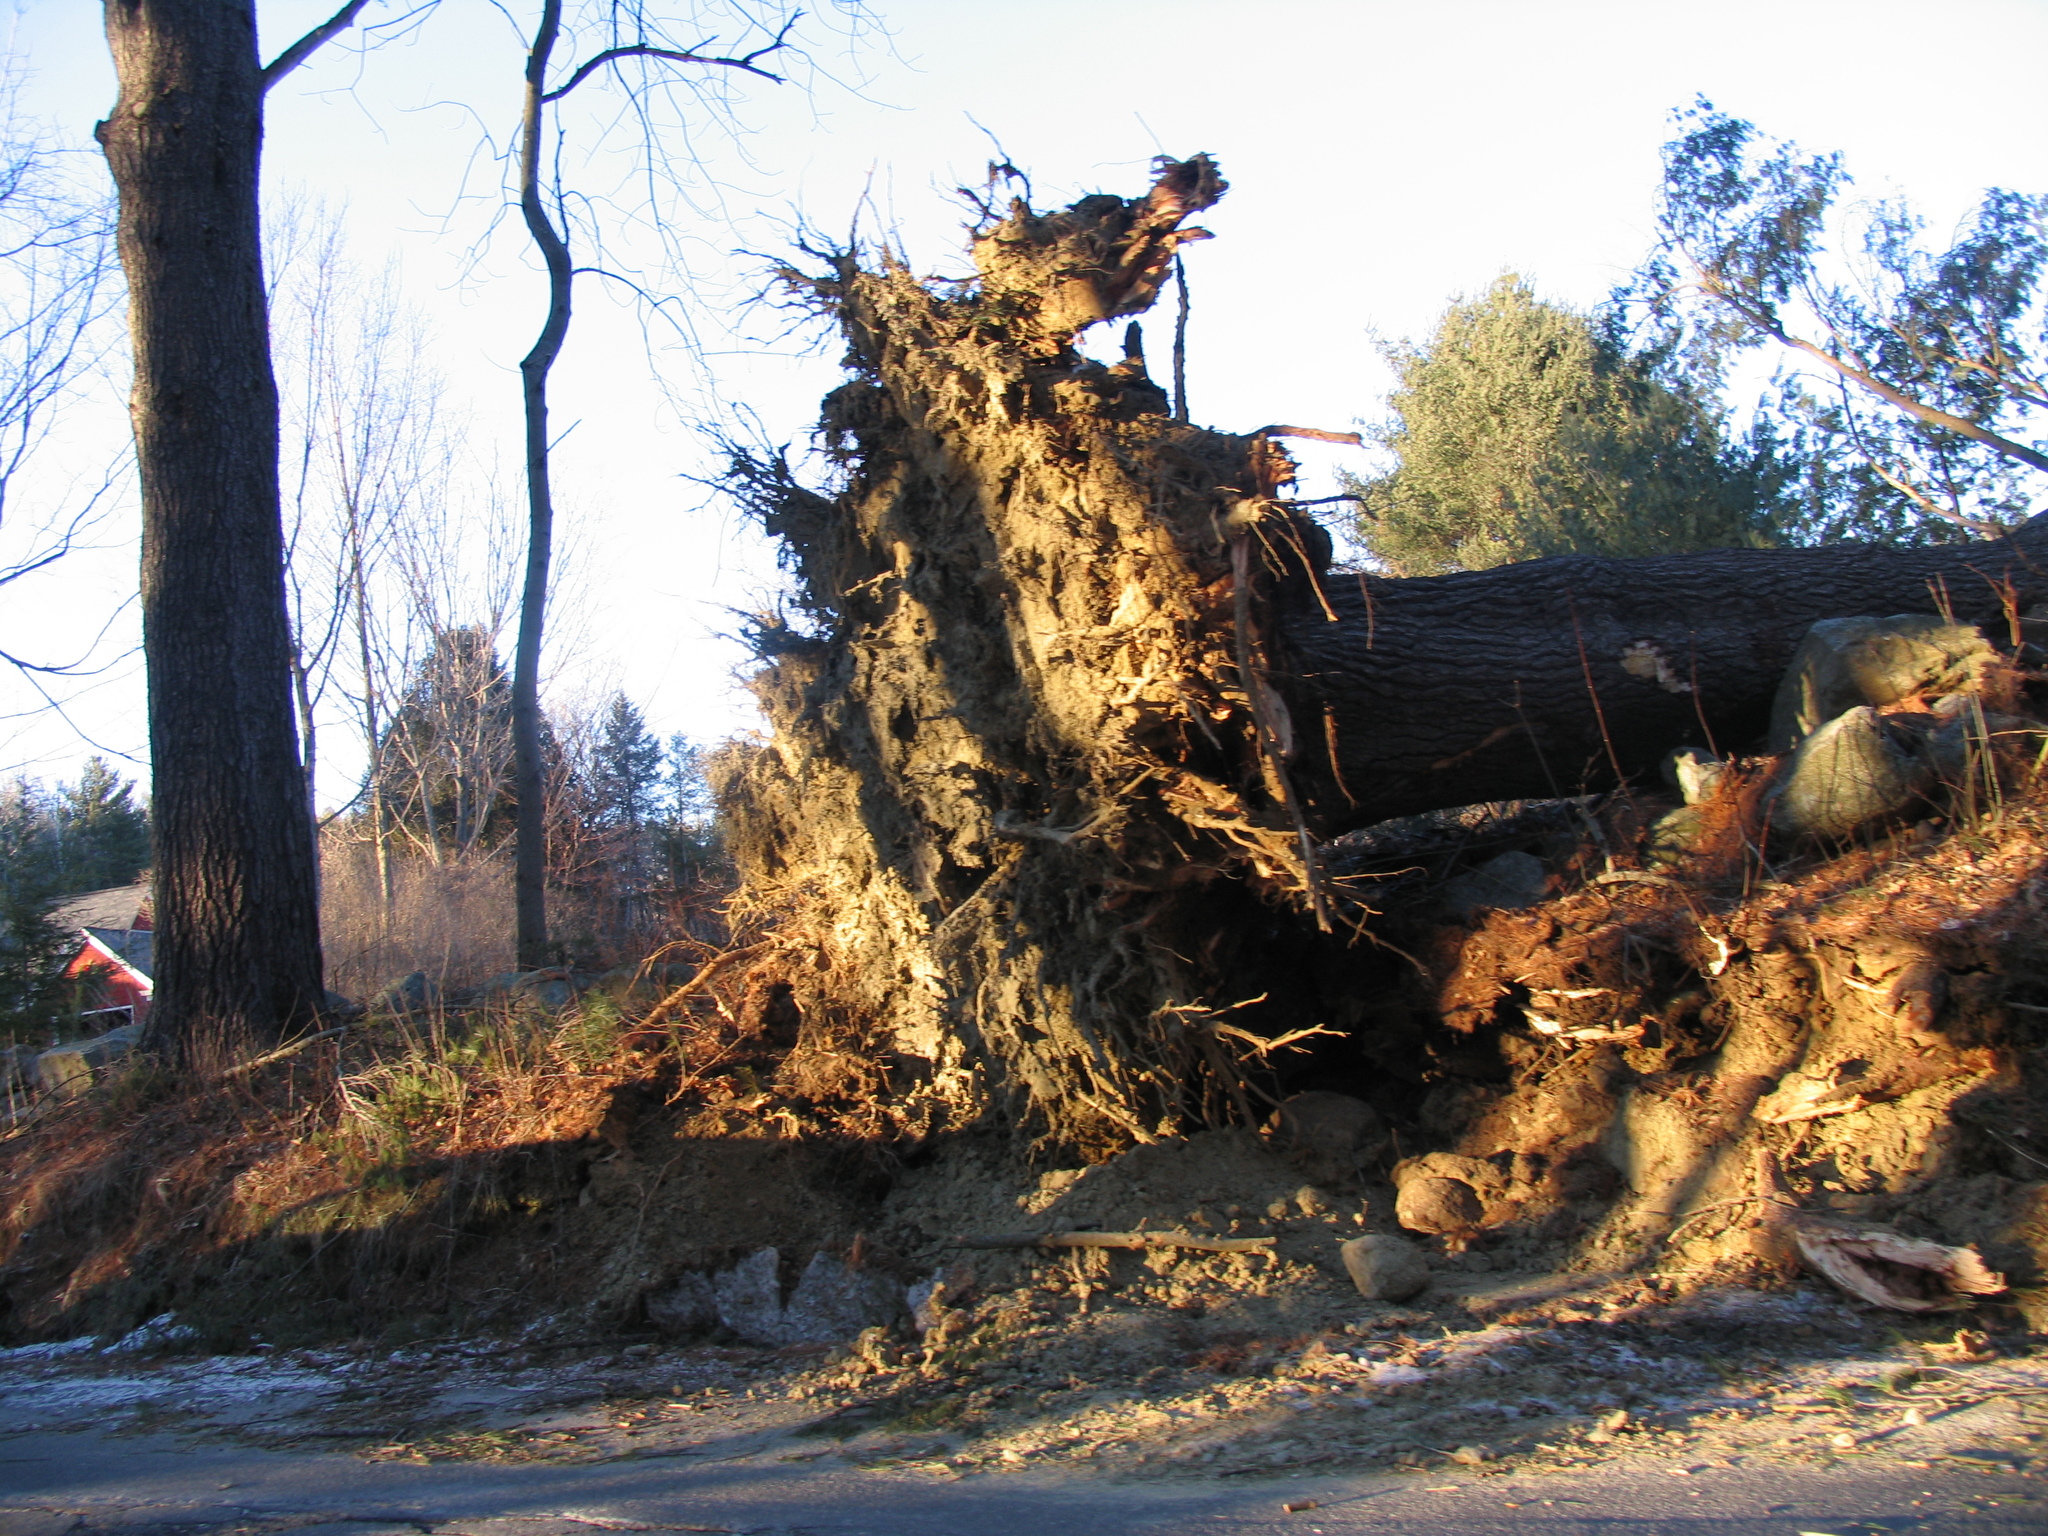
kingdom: Plantae
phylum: Tracheophyta
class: Pinopsida
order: Pinales
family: Pinaceae
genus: Pinus
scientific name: Pinus strobus
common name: Weymouth pine
